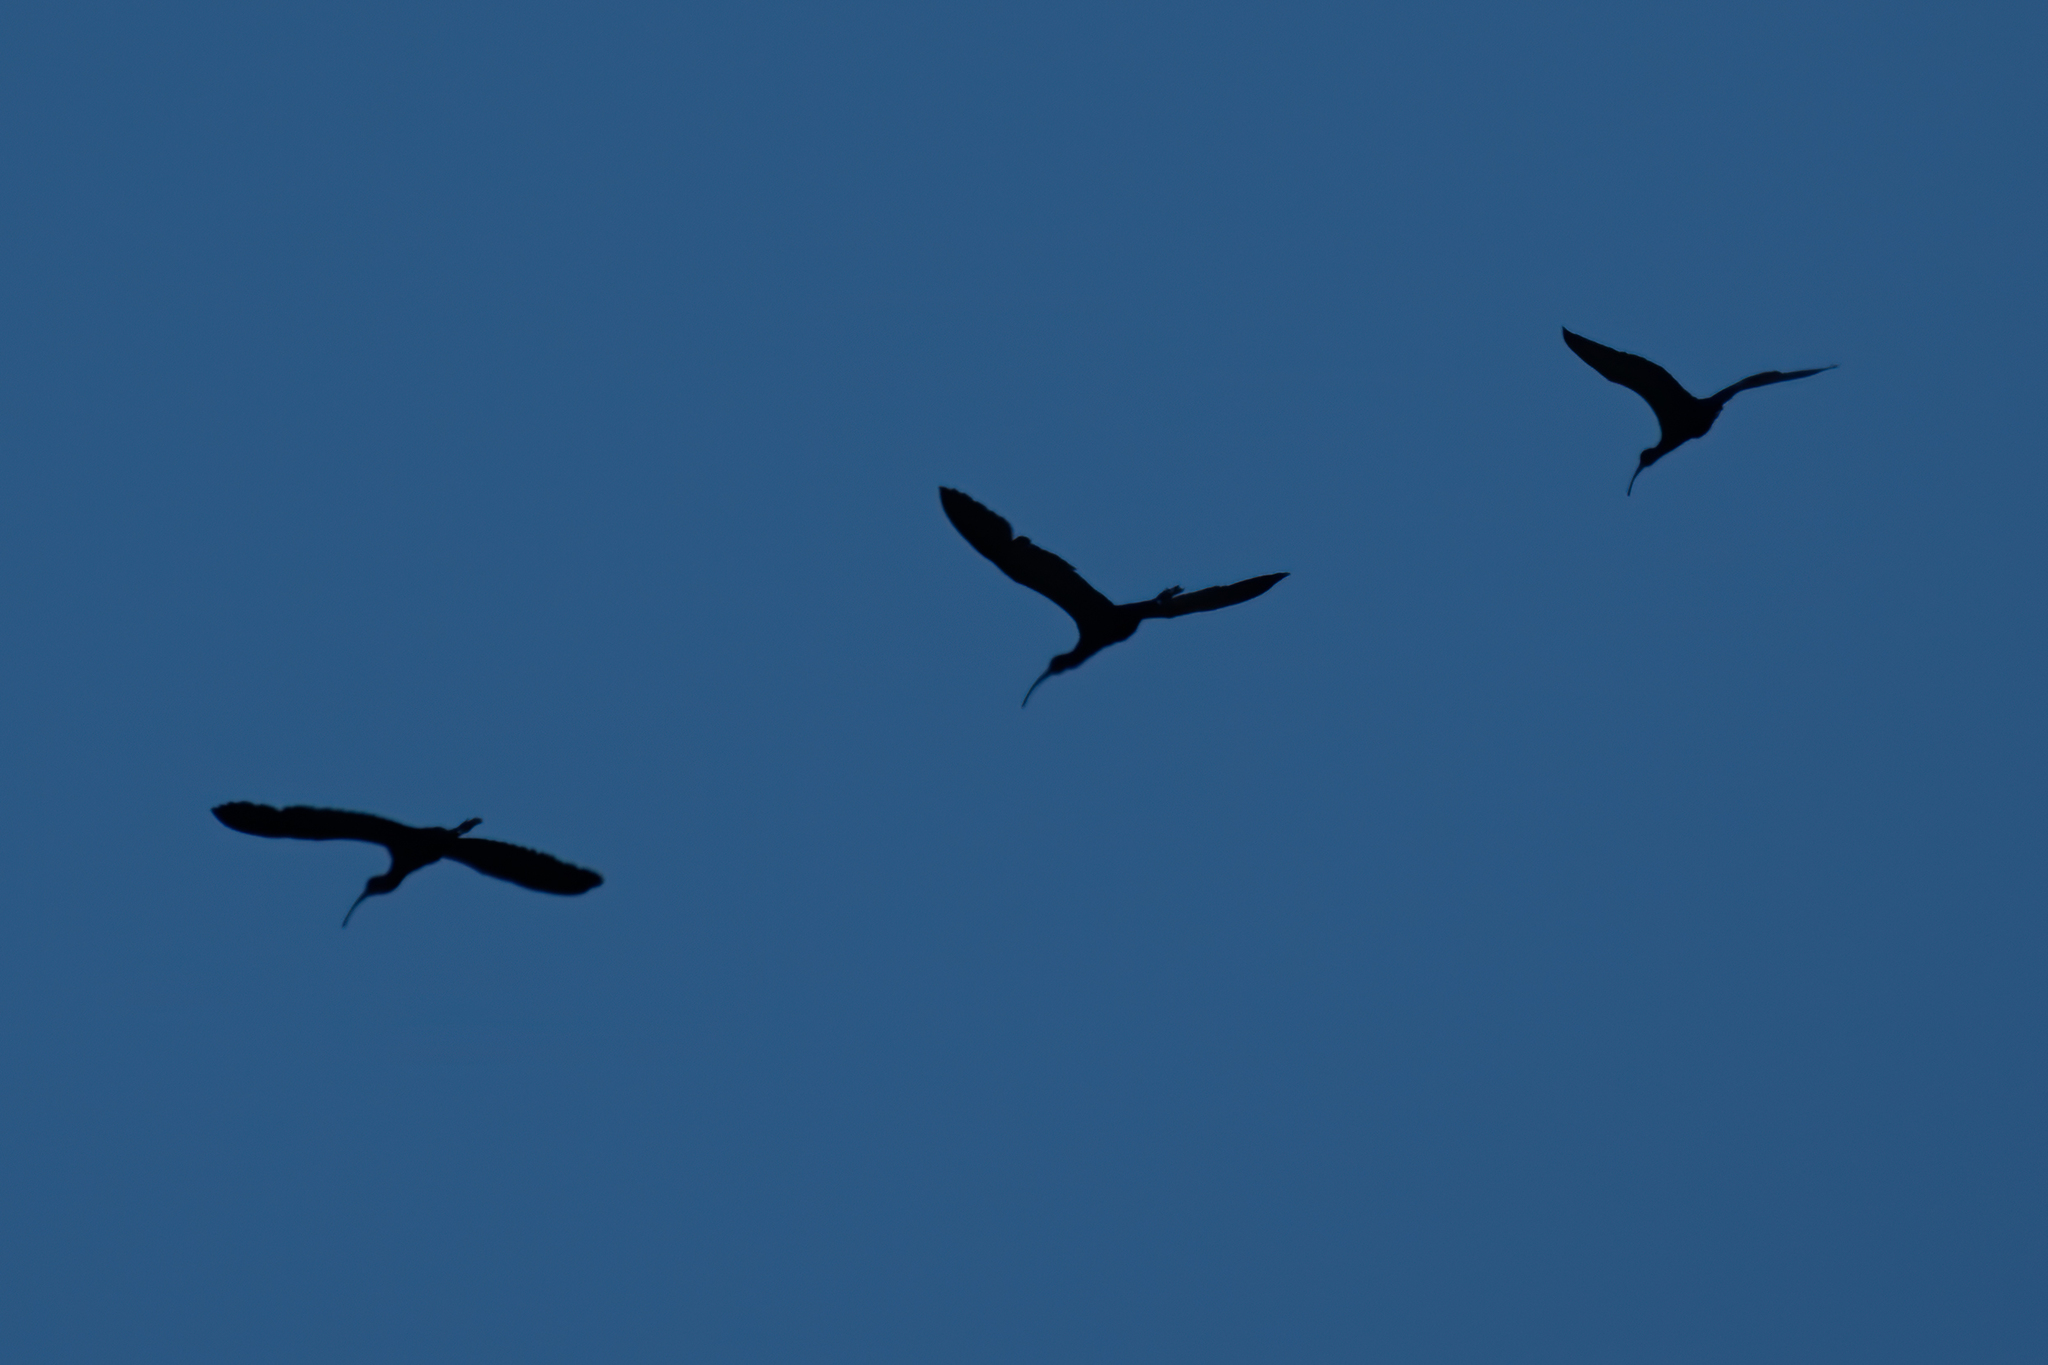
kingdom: Animalia
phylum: Chordata
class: Aves
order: Pelecaniformes
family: Threskiornithidae
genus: Plegadis
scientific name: Plegadis chihi
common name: White-faced ibis
